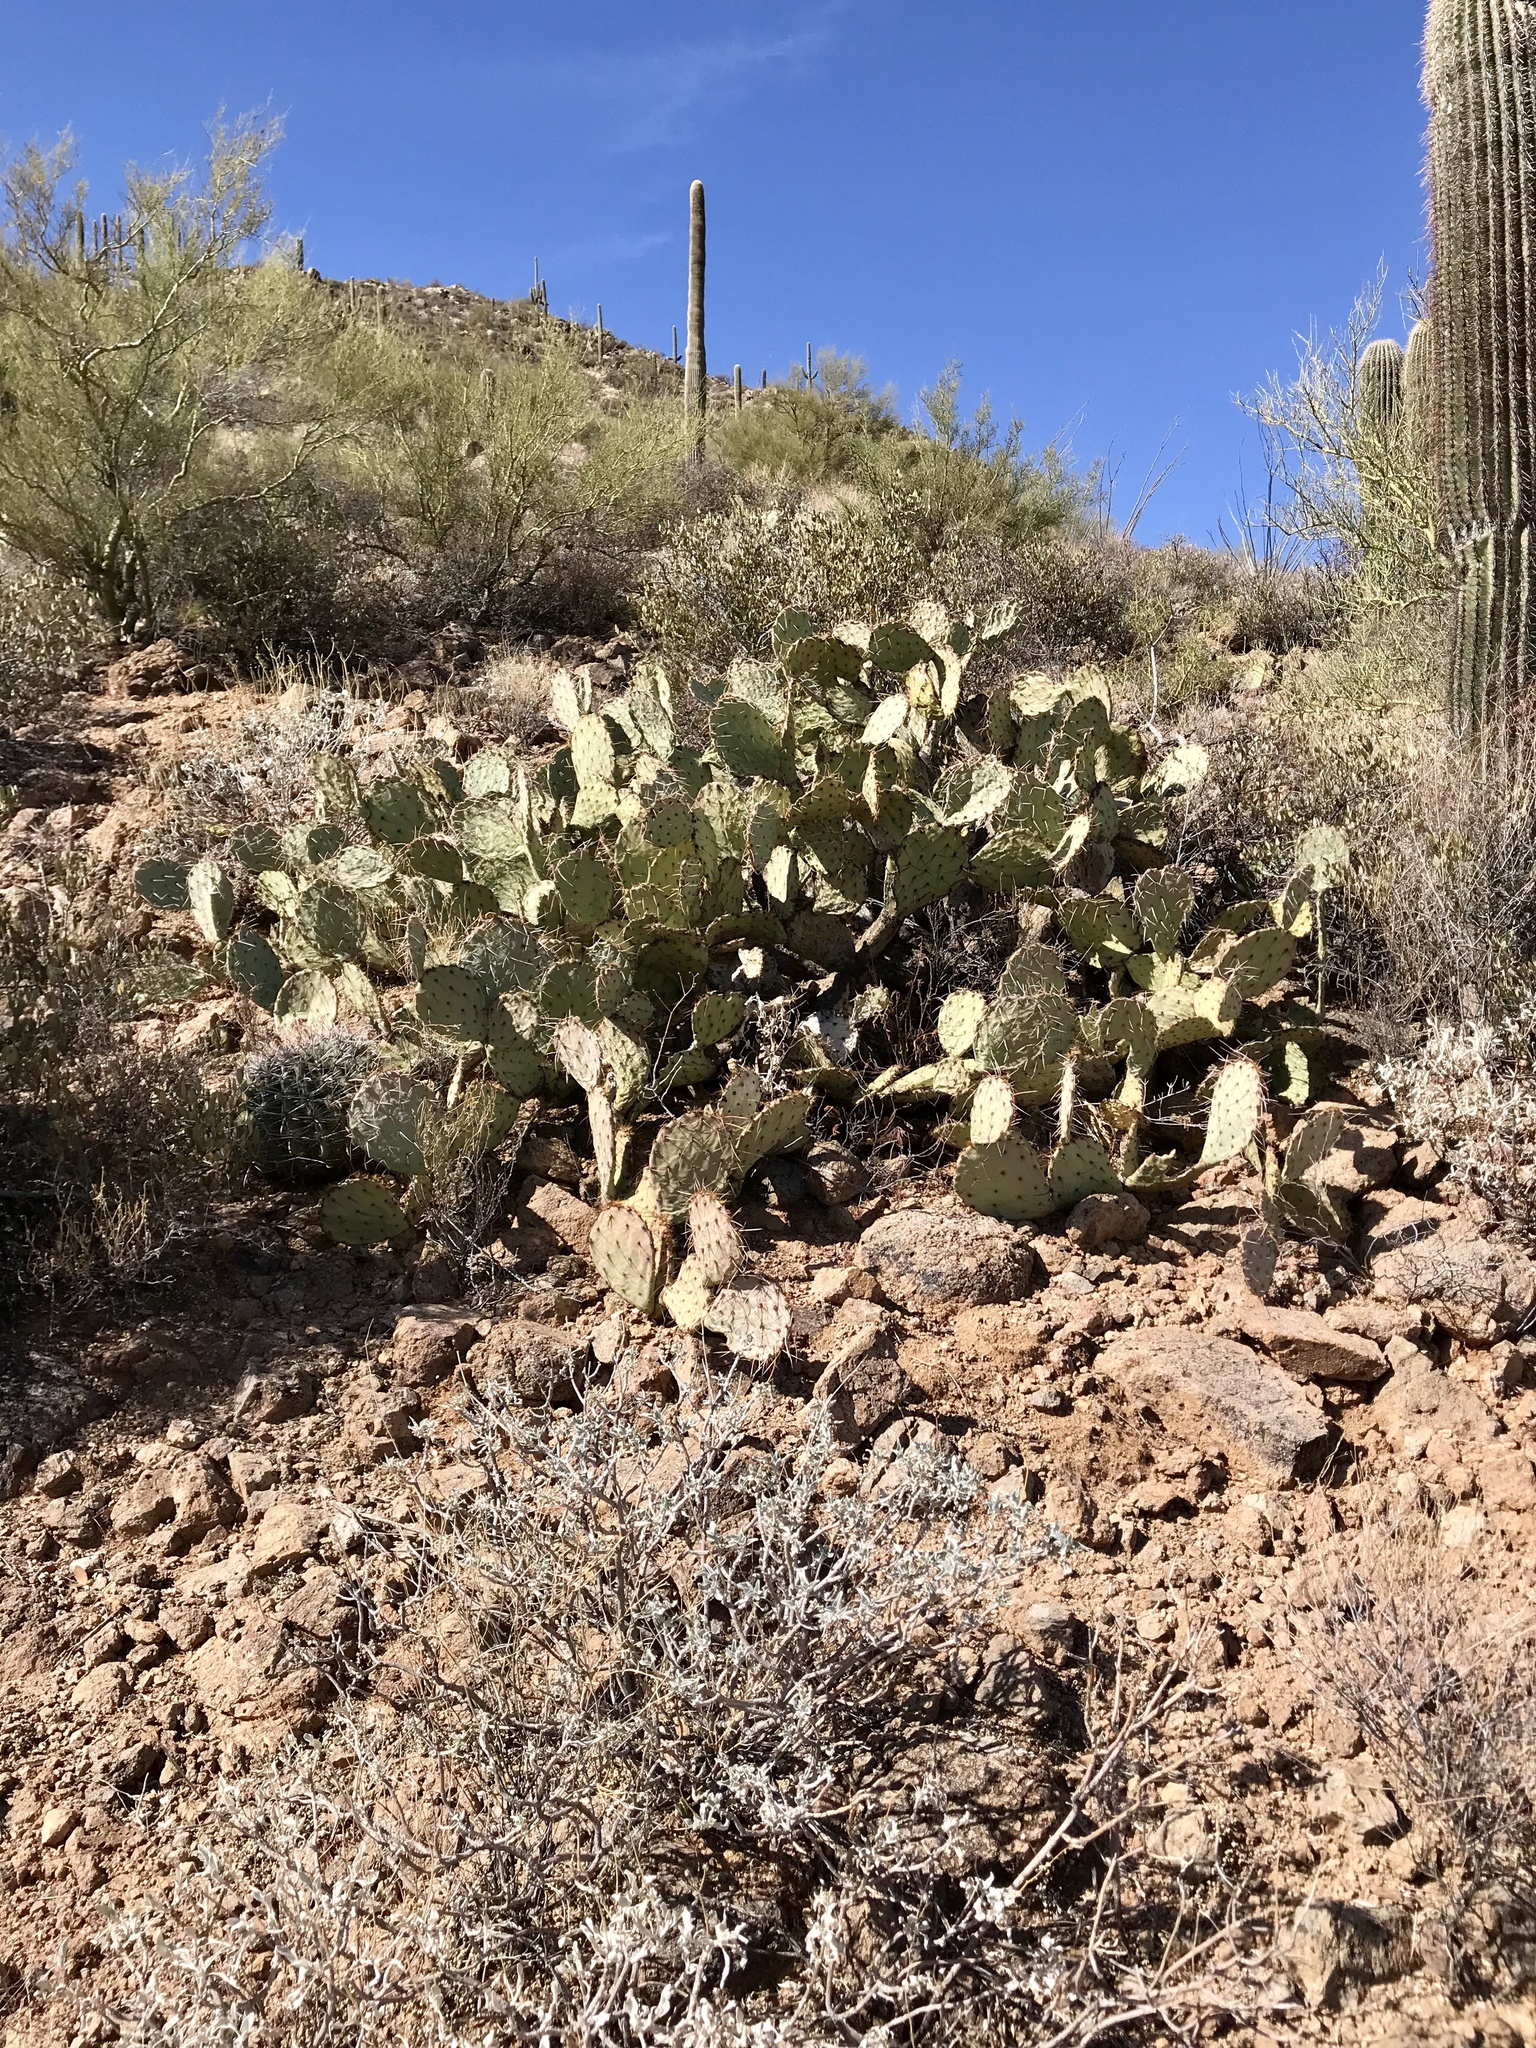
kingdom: Plantae
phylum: Tracheophyta
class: Magnoliopsida
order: Caryophyllales
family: Cactaceae
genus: Opuntia
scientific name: Opuntia engelmannii
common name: Cactus-apple
